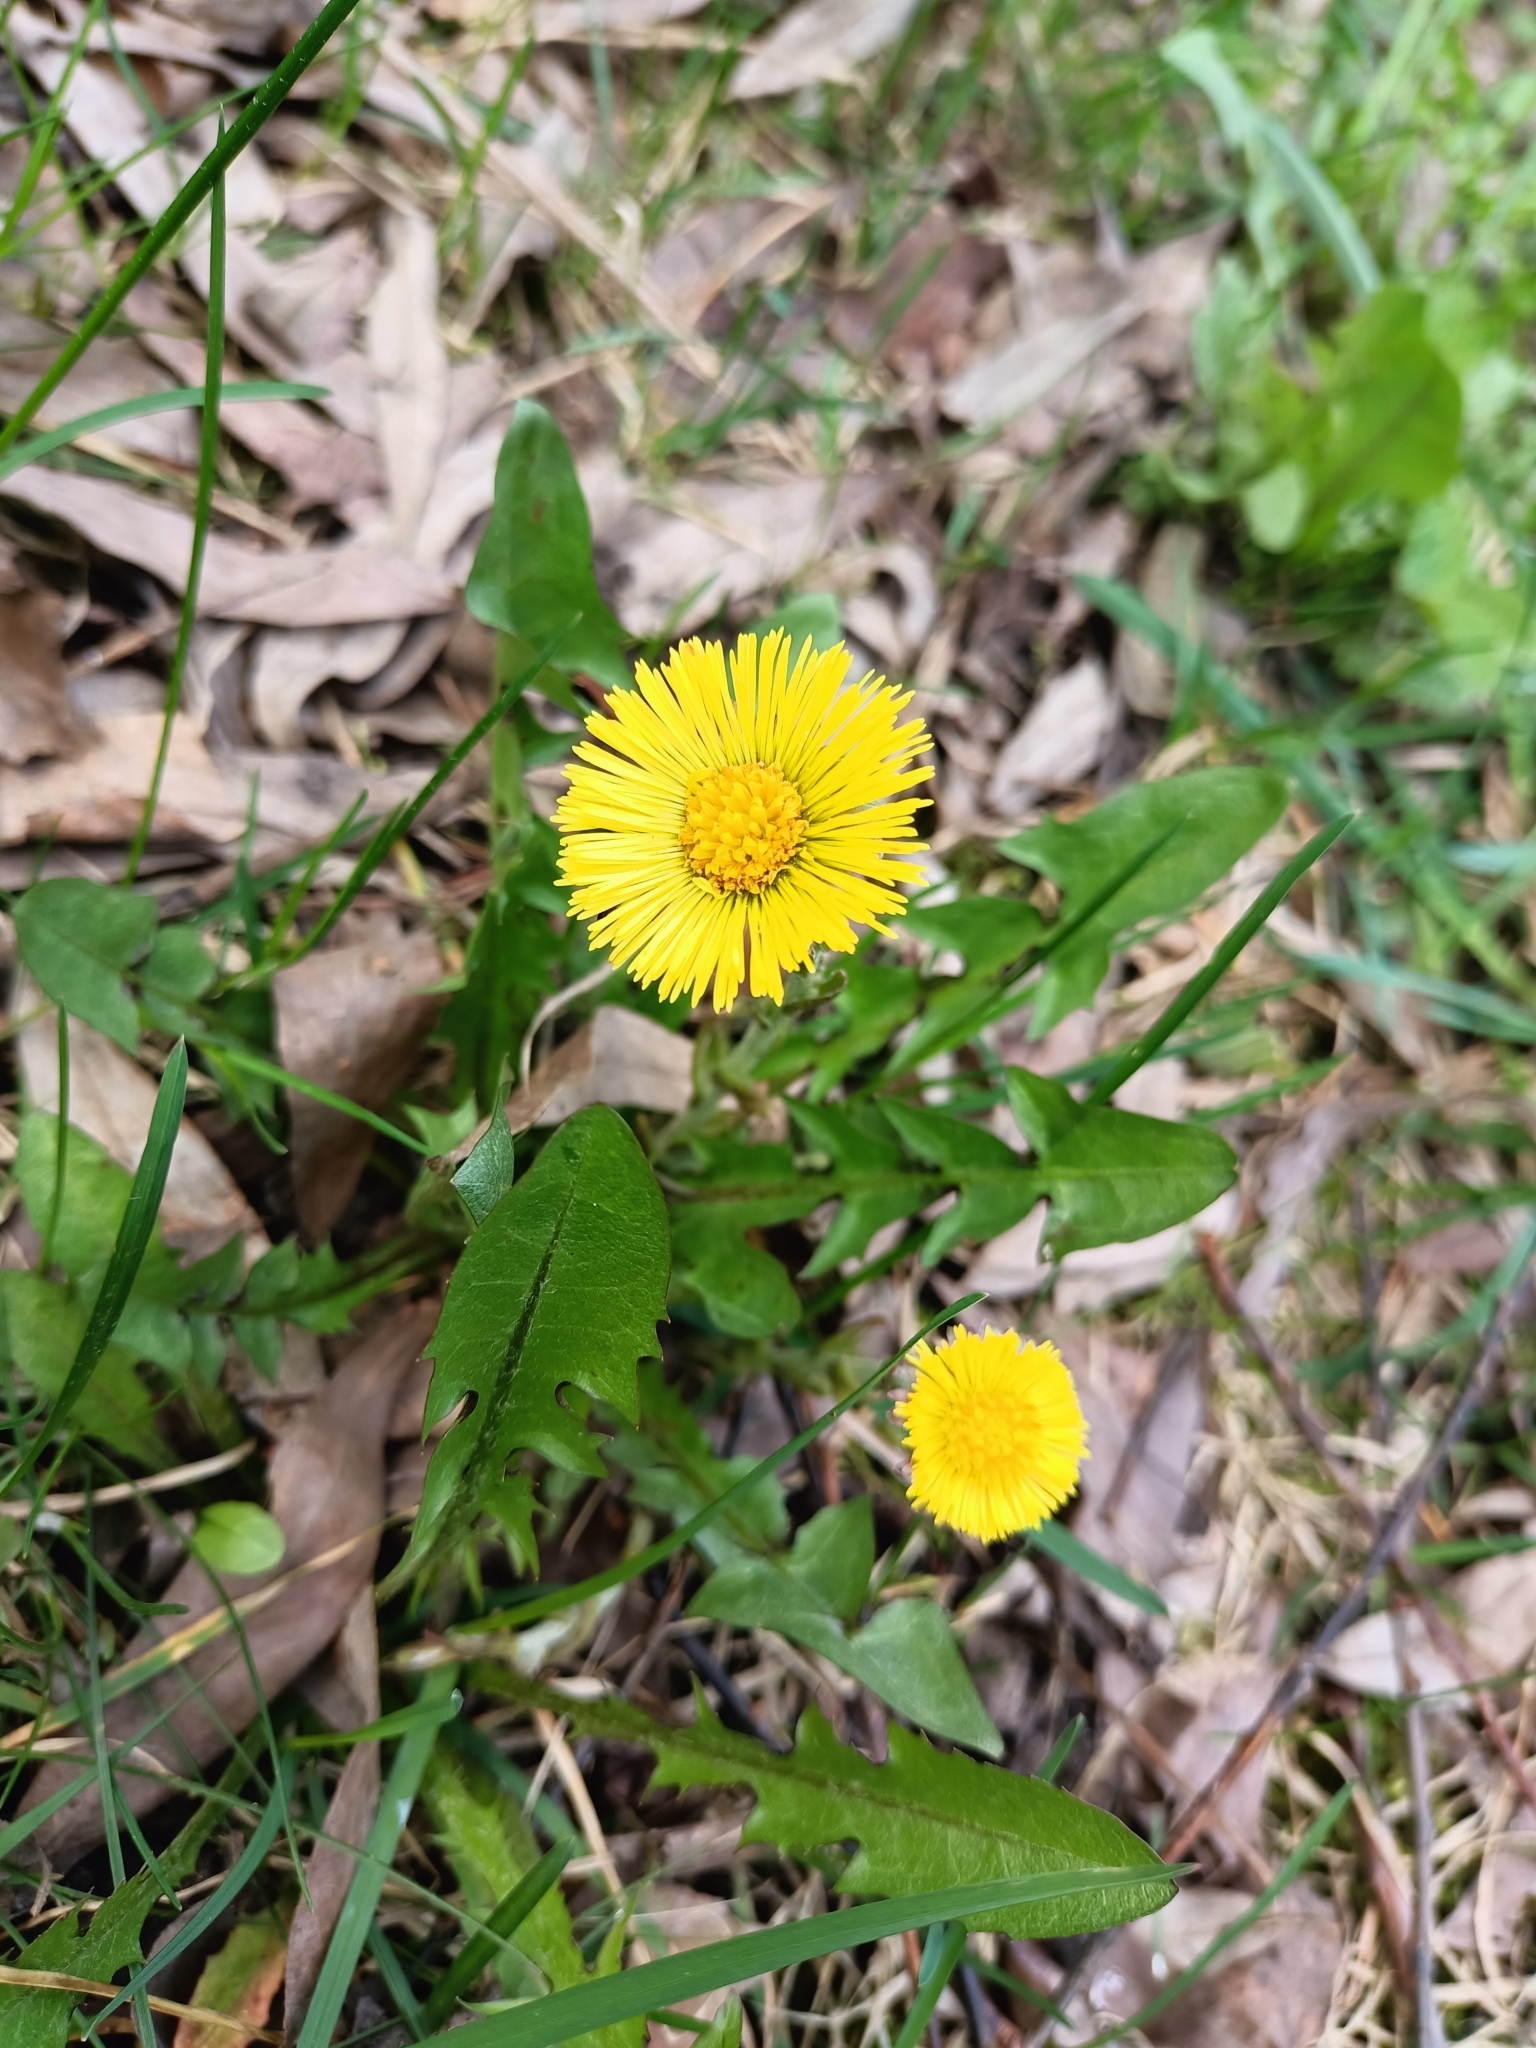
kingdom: Plantae
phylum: Tracheophyta
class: Magnoliopsida
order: Asterales
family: Asteraceae
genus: Tussilago
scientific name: Tussilago farfara
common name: Coltsfoot
